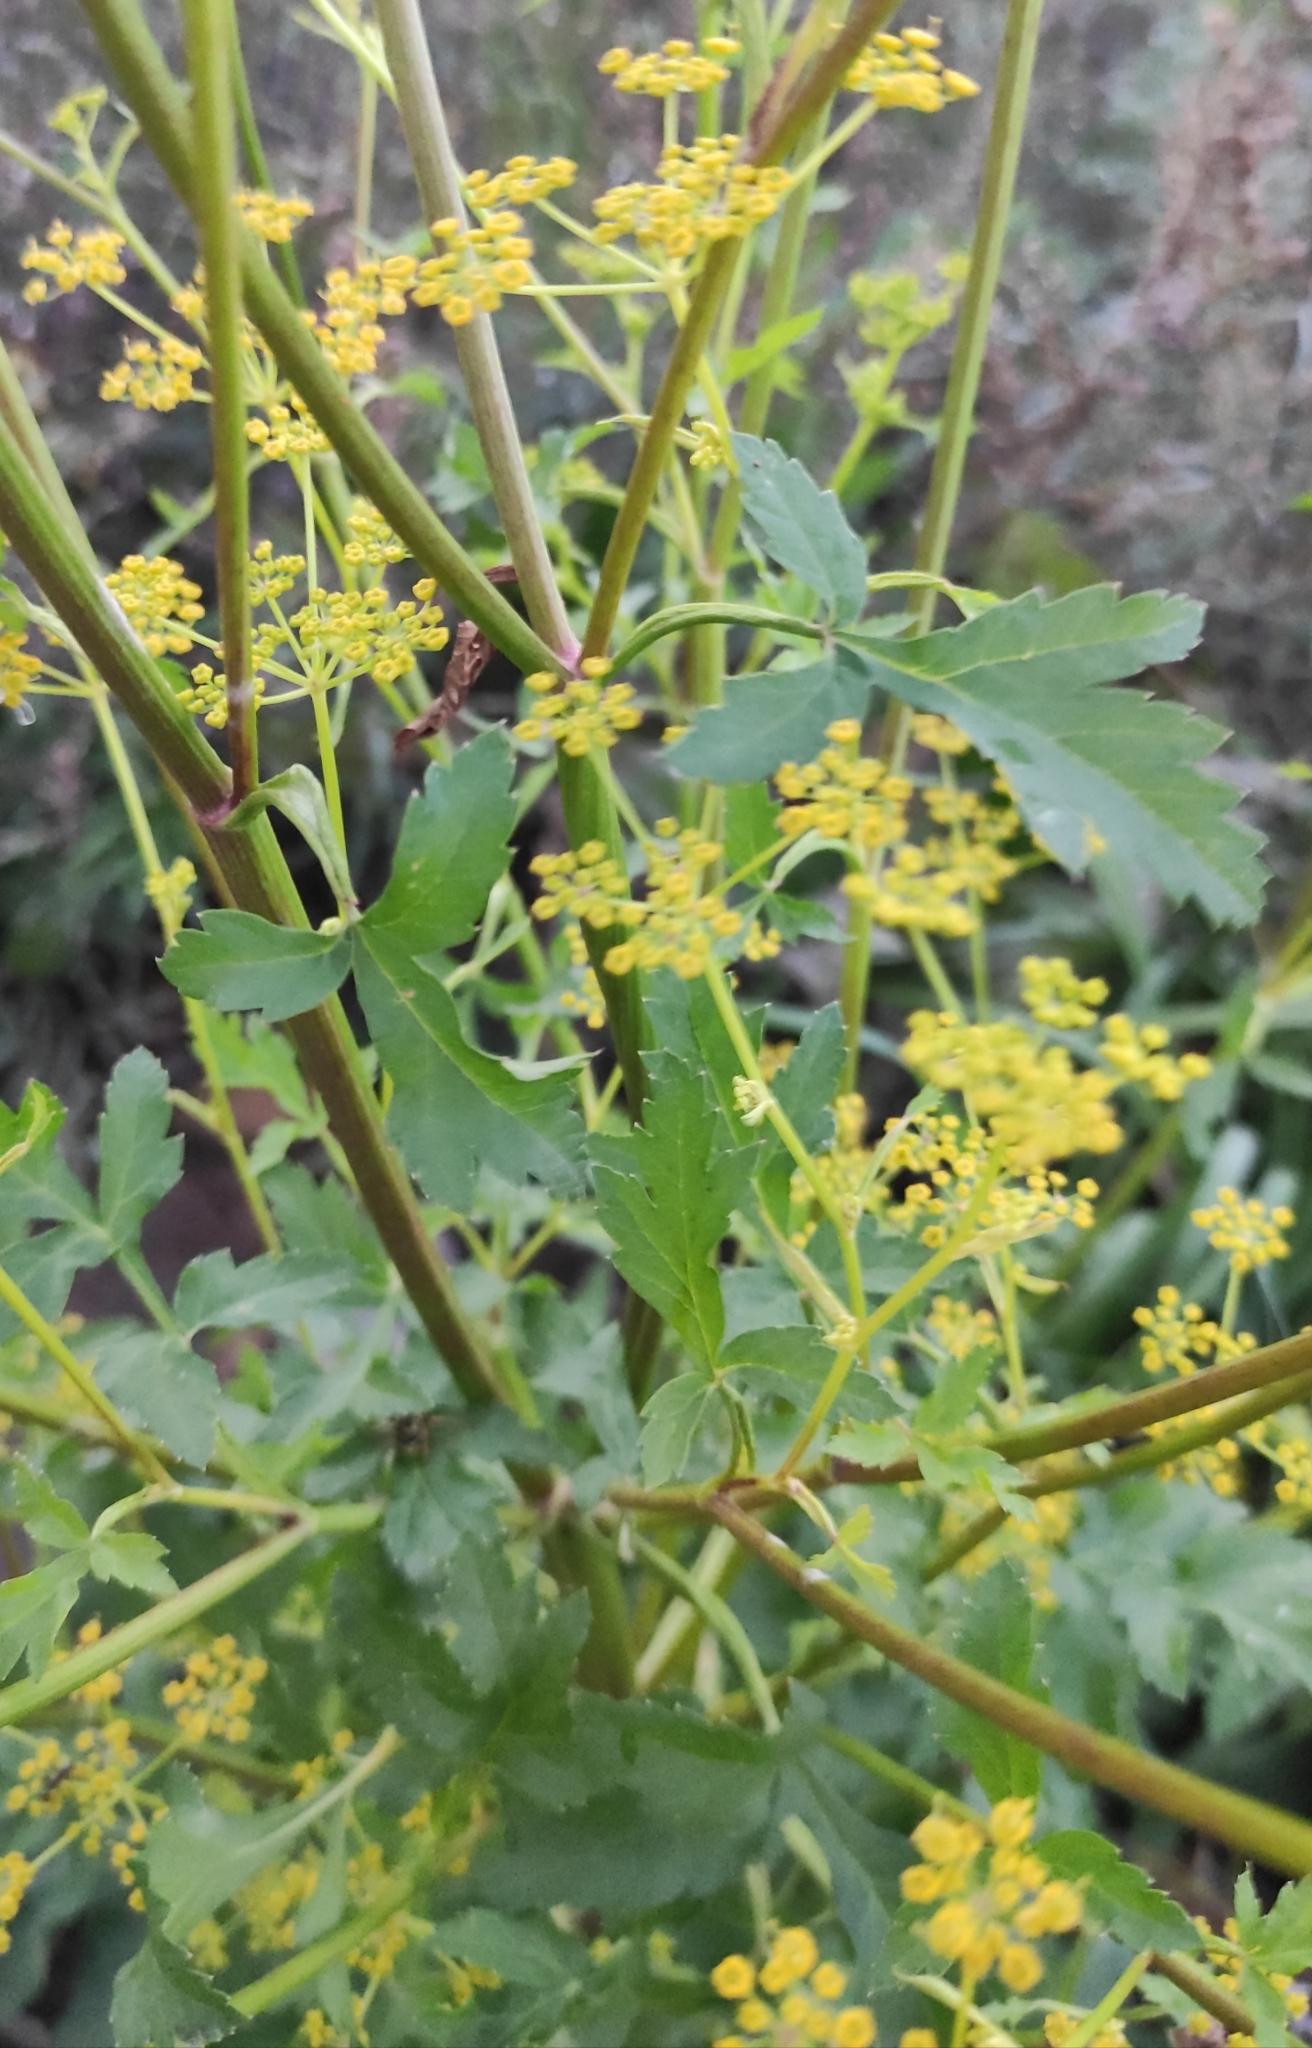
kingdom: Plantae
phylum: Tracheophyta
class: Magnoliopsida
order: Apiales
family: Apiaceae
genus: Pastinaca
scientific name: Pastinaca sativa
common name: Wild parsnip
